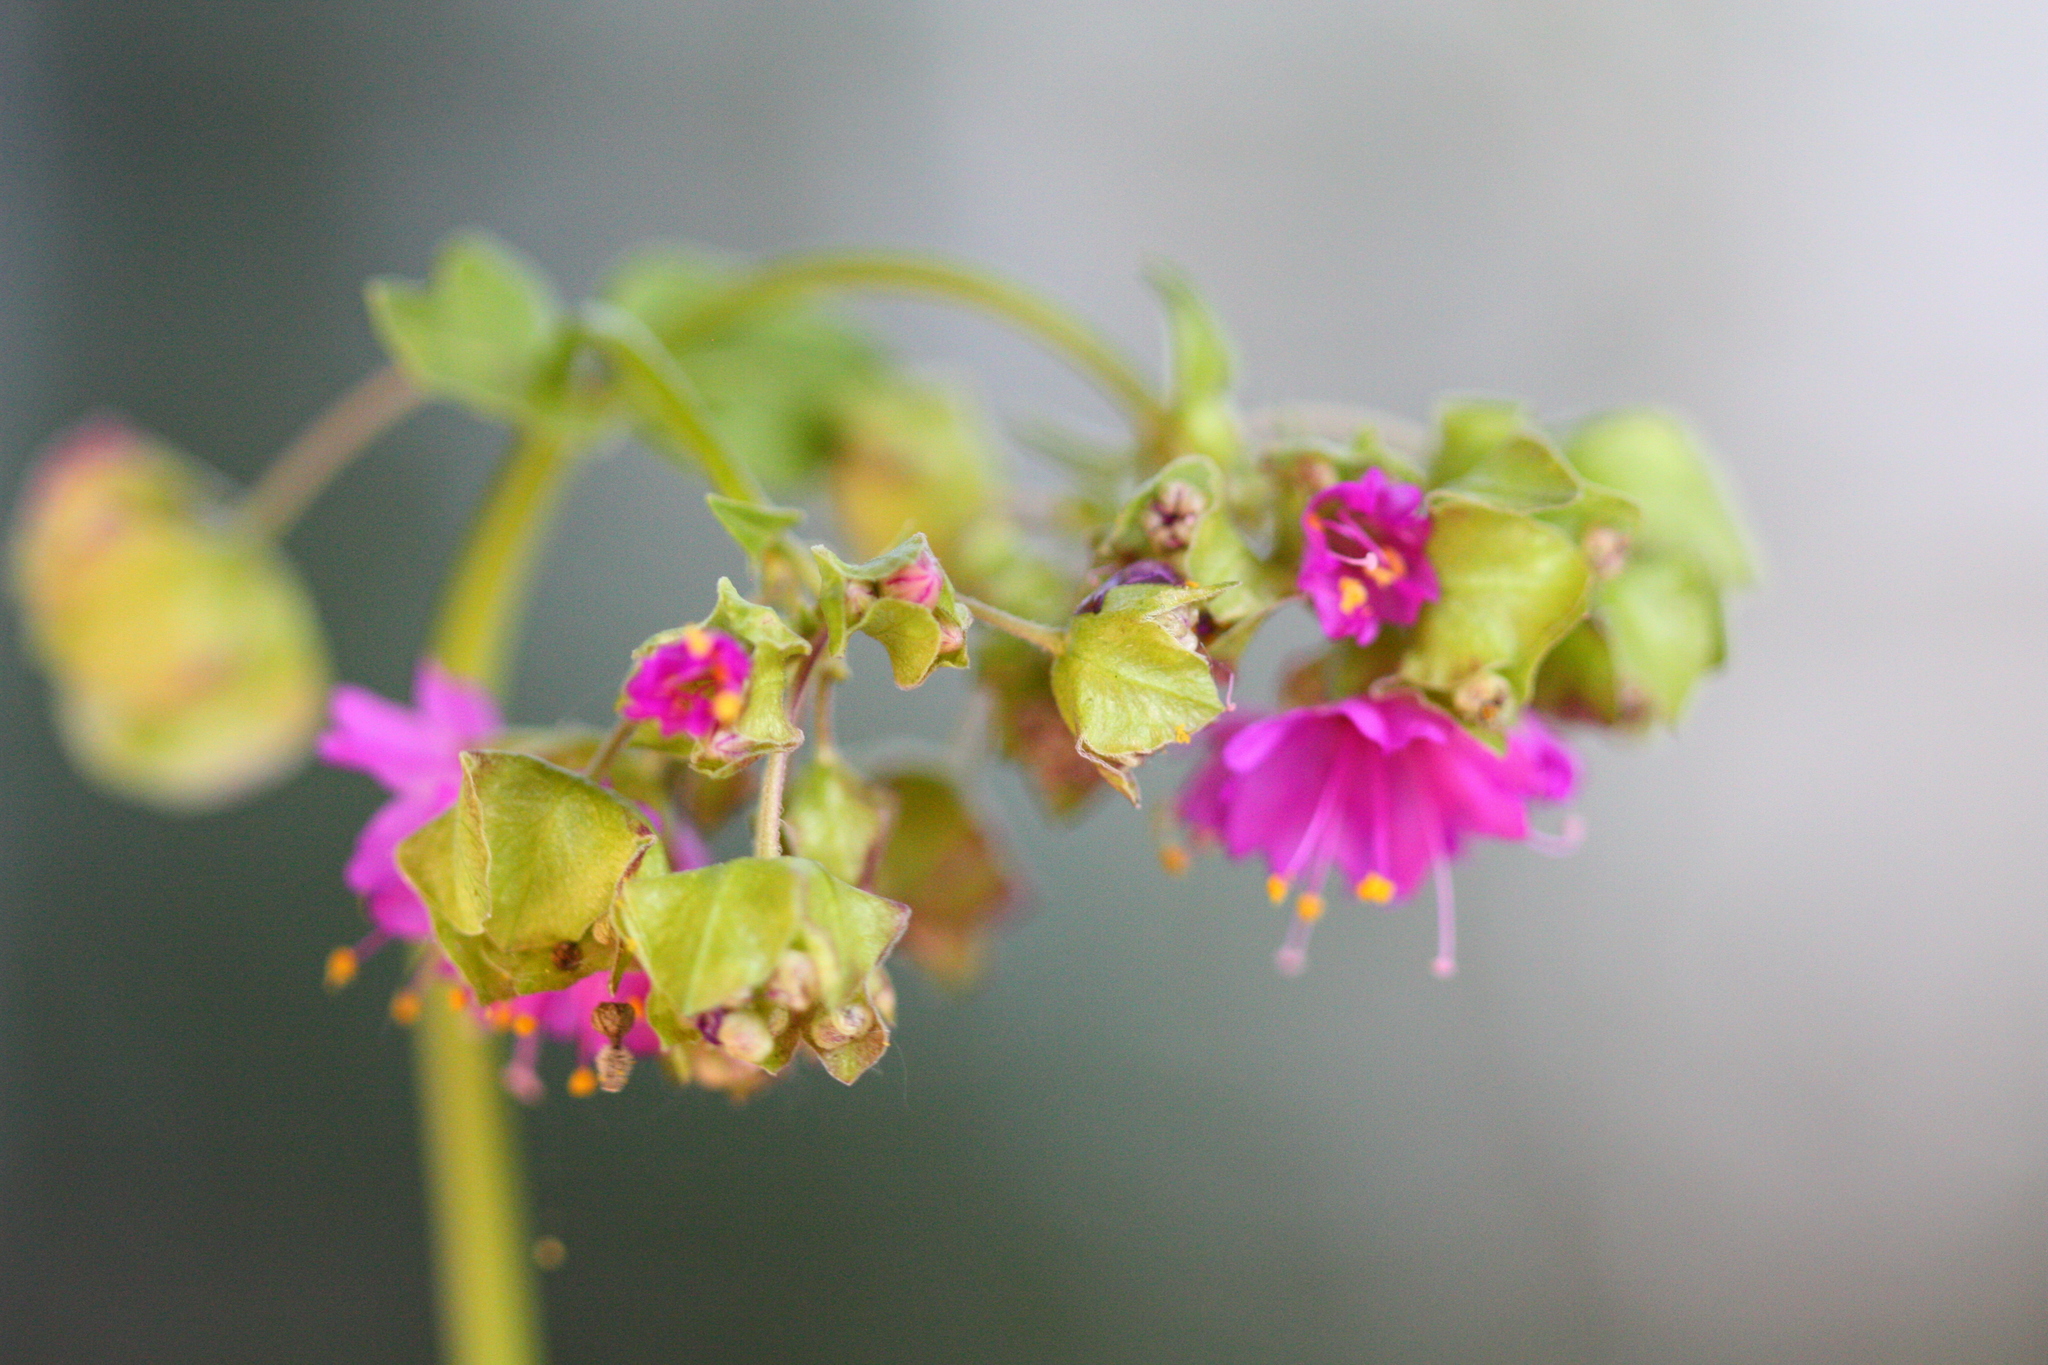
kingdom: Plantae
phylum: Tracheophyta
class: Magnoliopsida
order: Caryophyllales
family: Nyctaginaceae
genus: Mirabilis
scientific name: Mirabilis nyctaginea
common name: Umbrella wort
